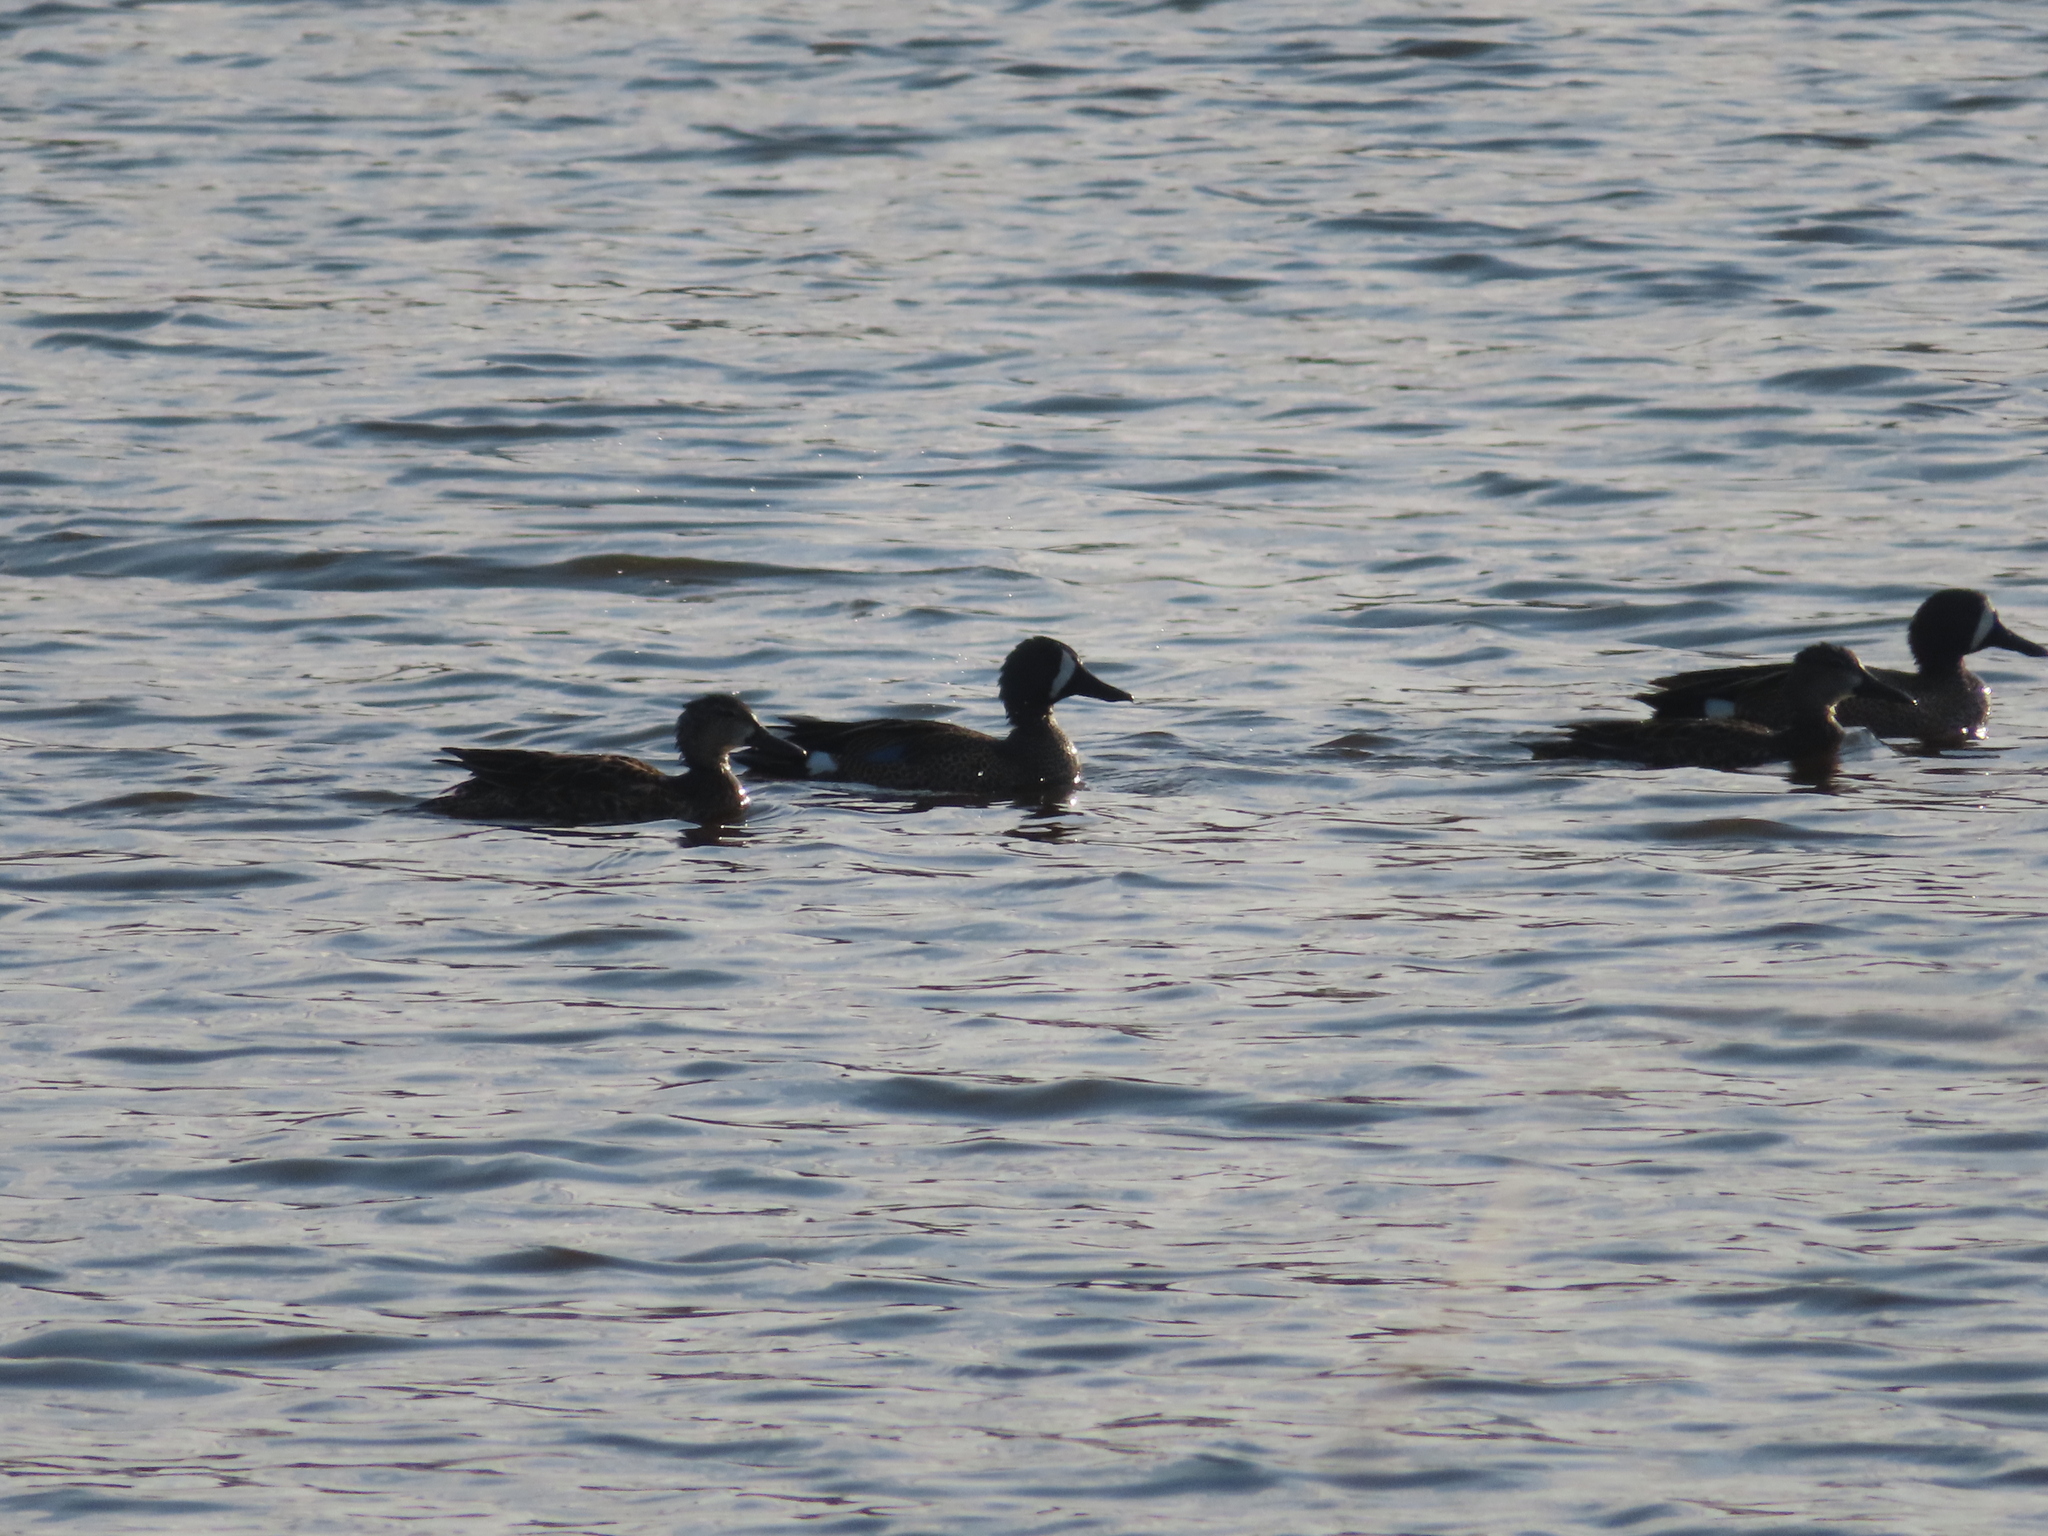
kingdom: Animalia
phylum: Chordata
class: Aves
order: Anseriformes
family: Anatidae
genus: Spatula
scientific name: Spatula discors
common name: Blue-winged teal
